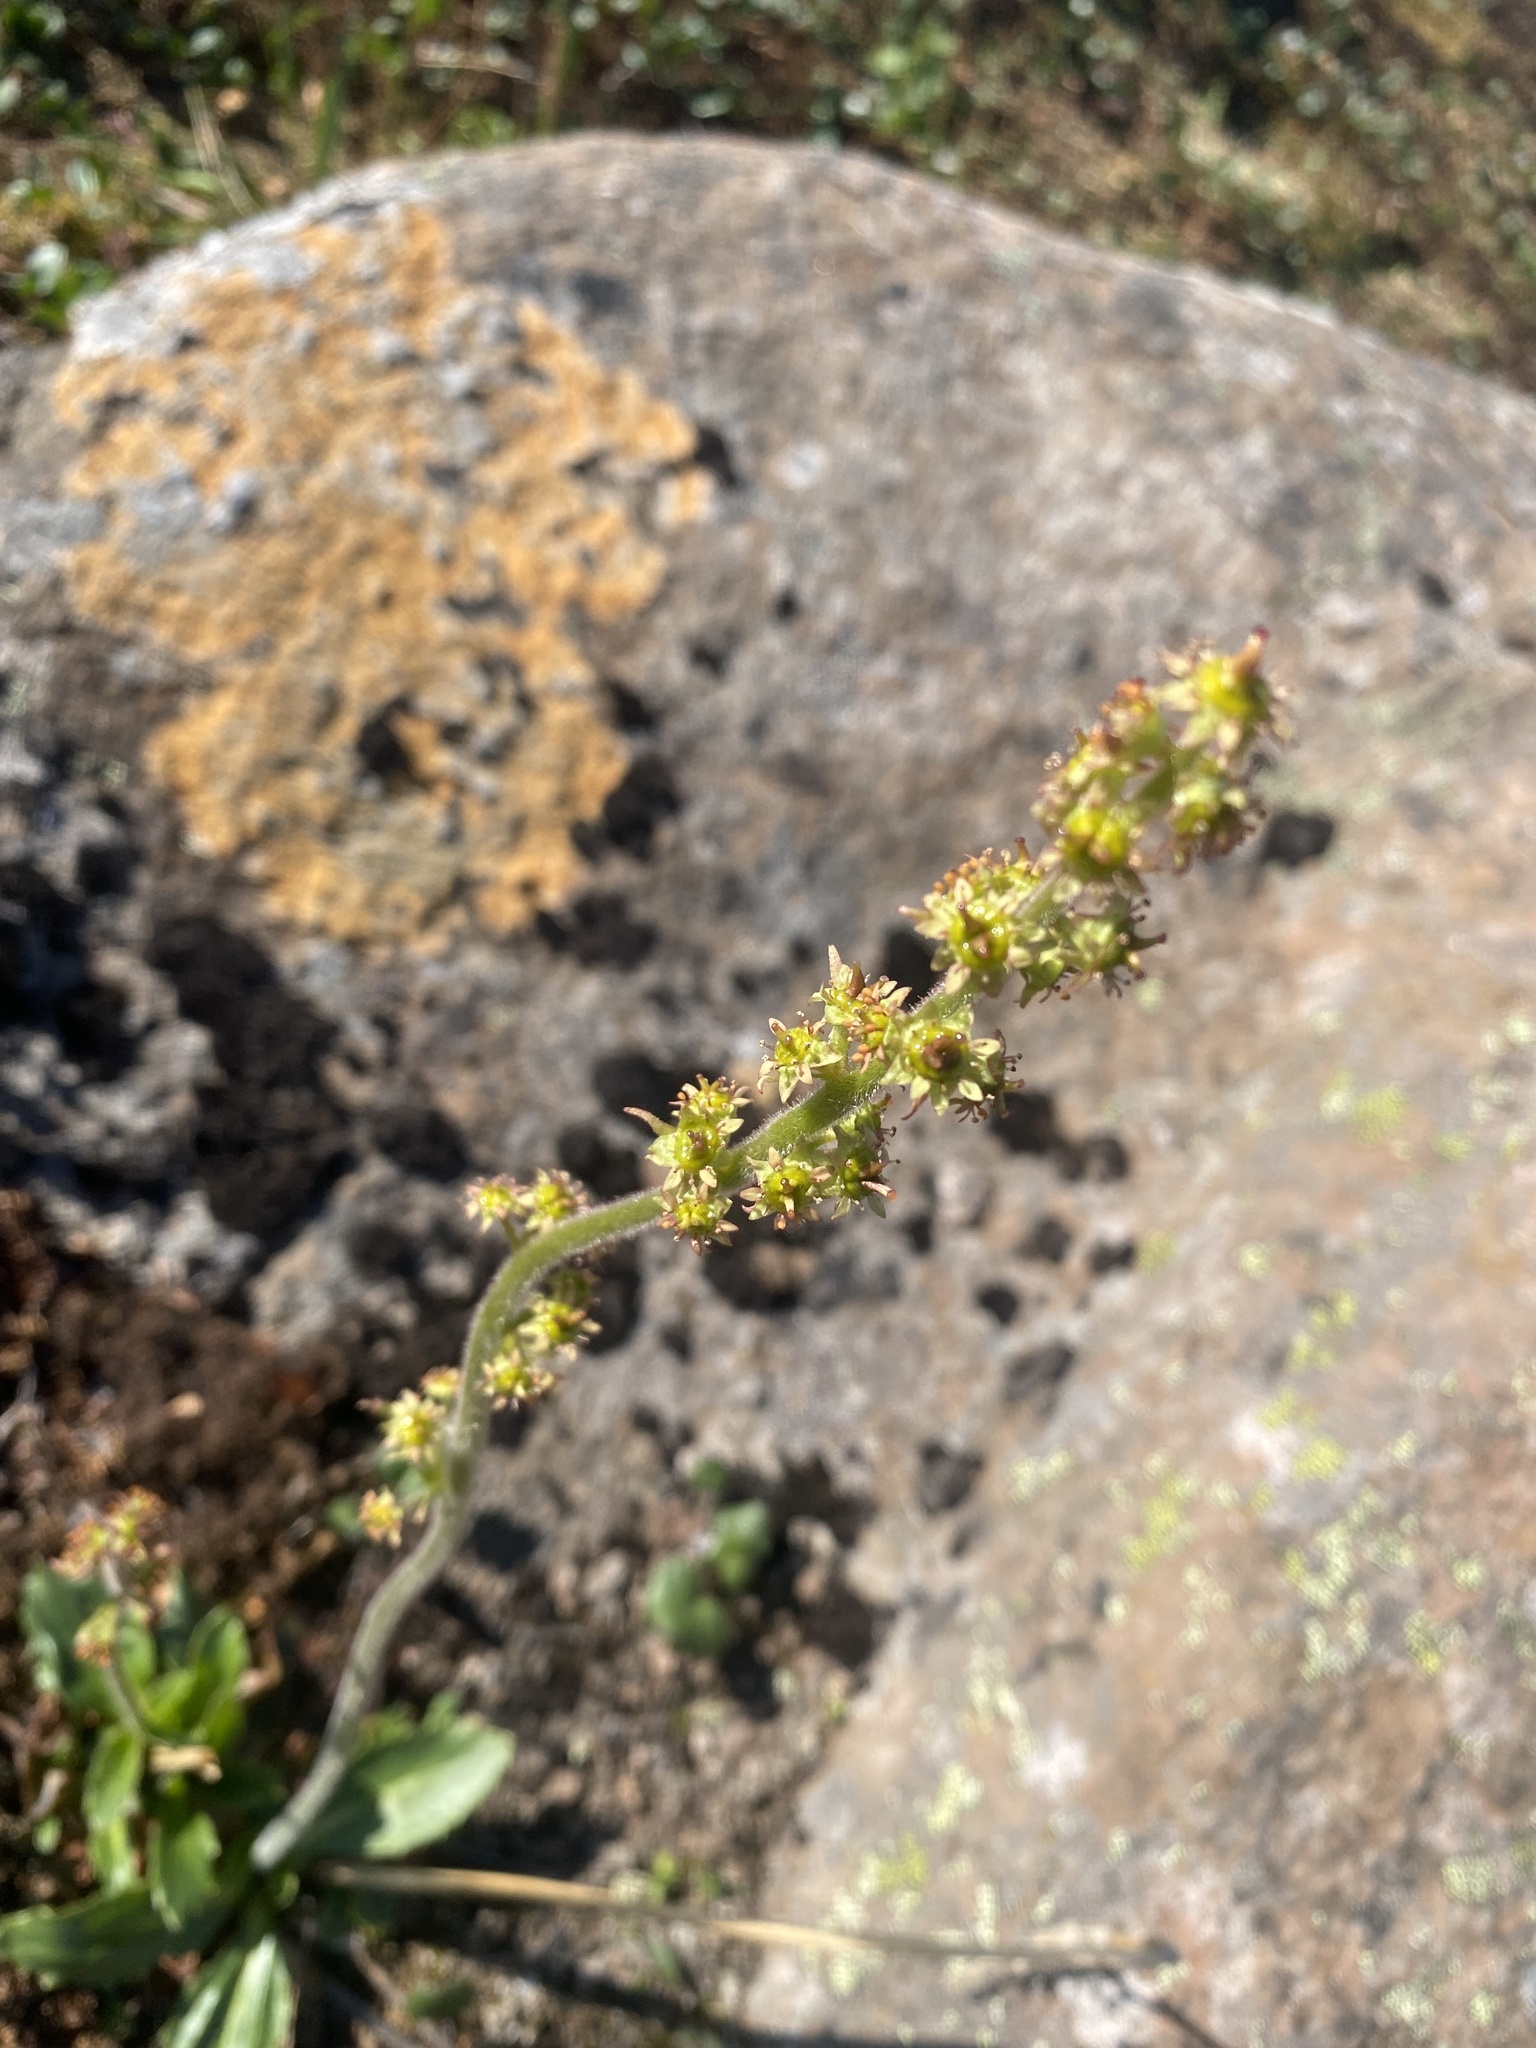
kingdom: Plantae
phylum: Tracheophyta
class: Magnoliopsida
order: Saxifragales
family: Saxifragaceae
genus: Micranthes
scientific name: Micranthes hieraciifolia
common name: Hawkweed-leaved saxifrage
